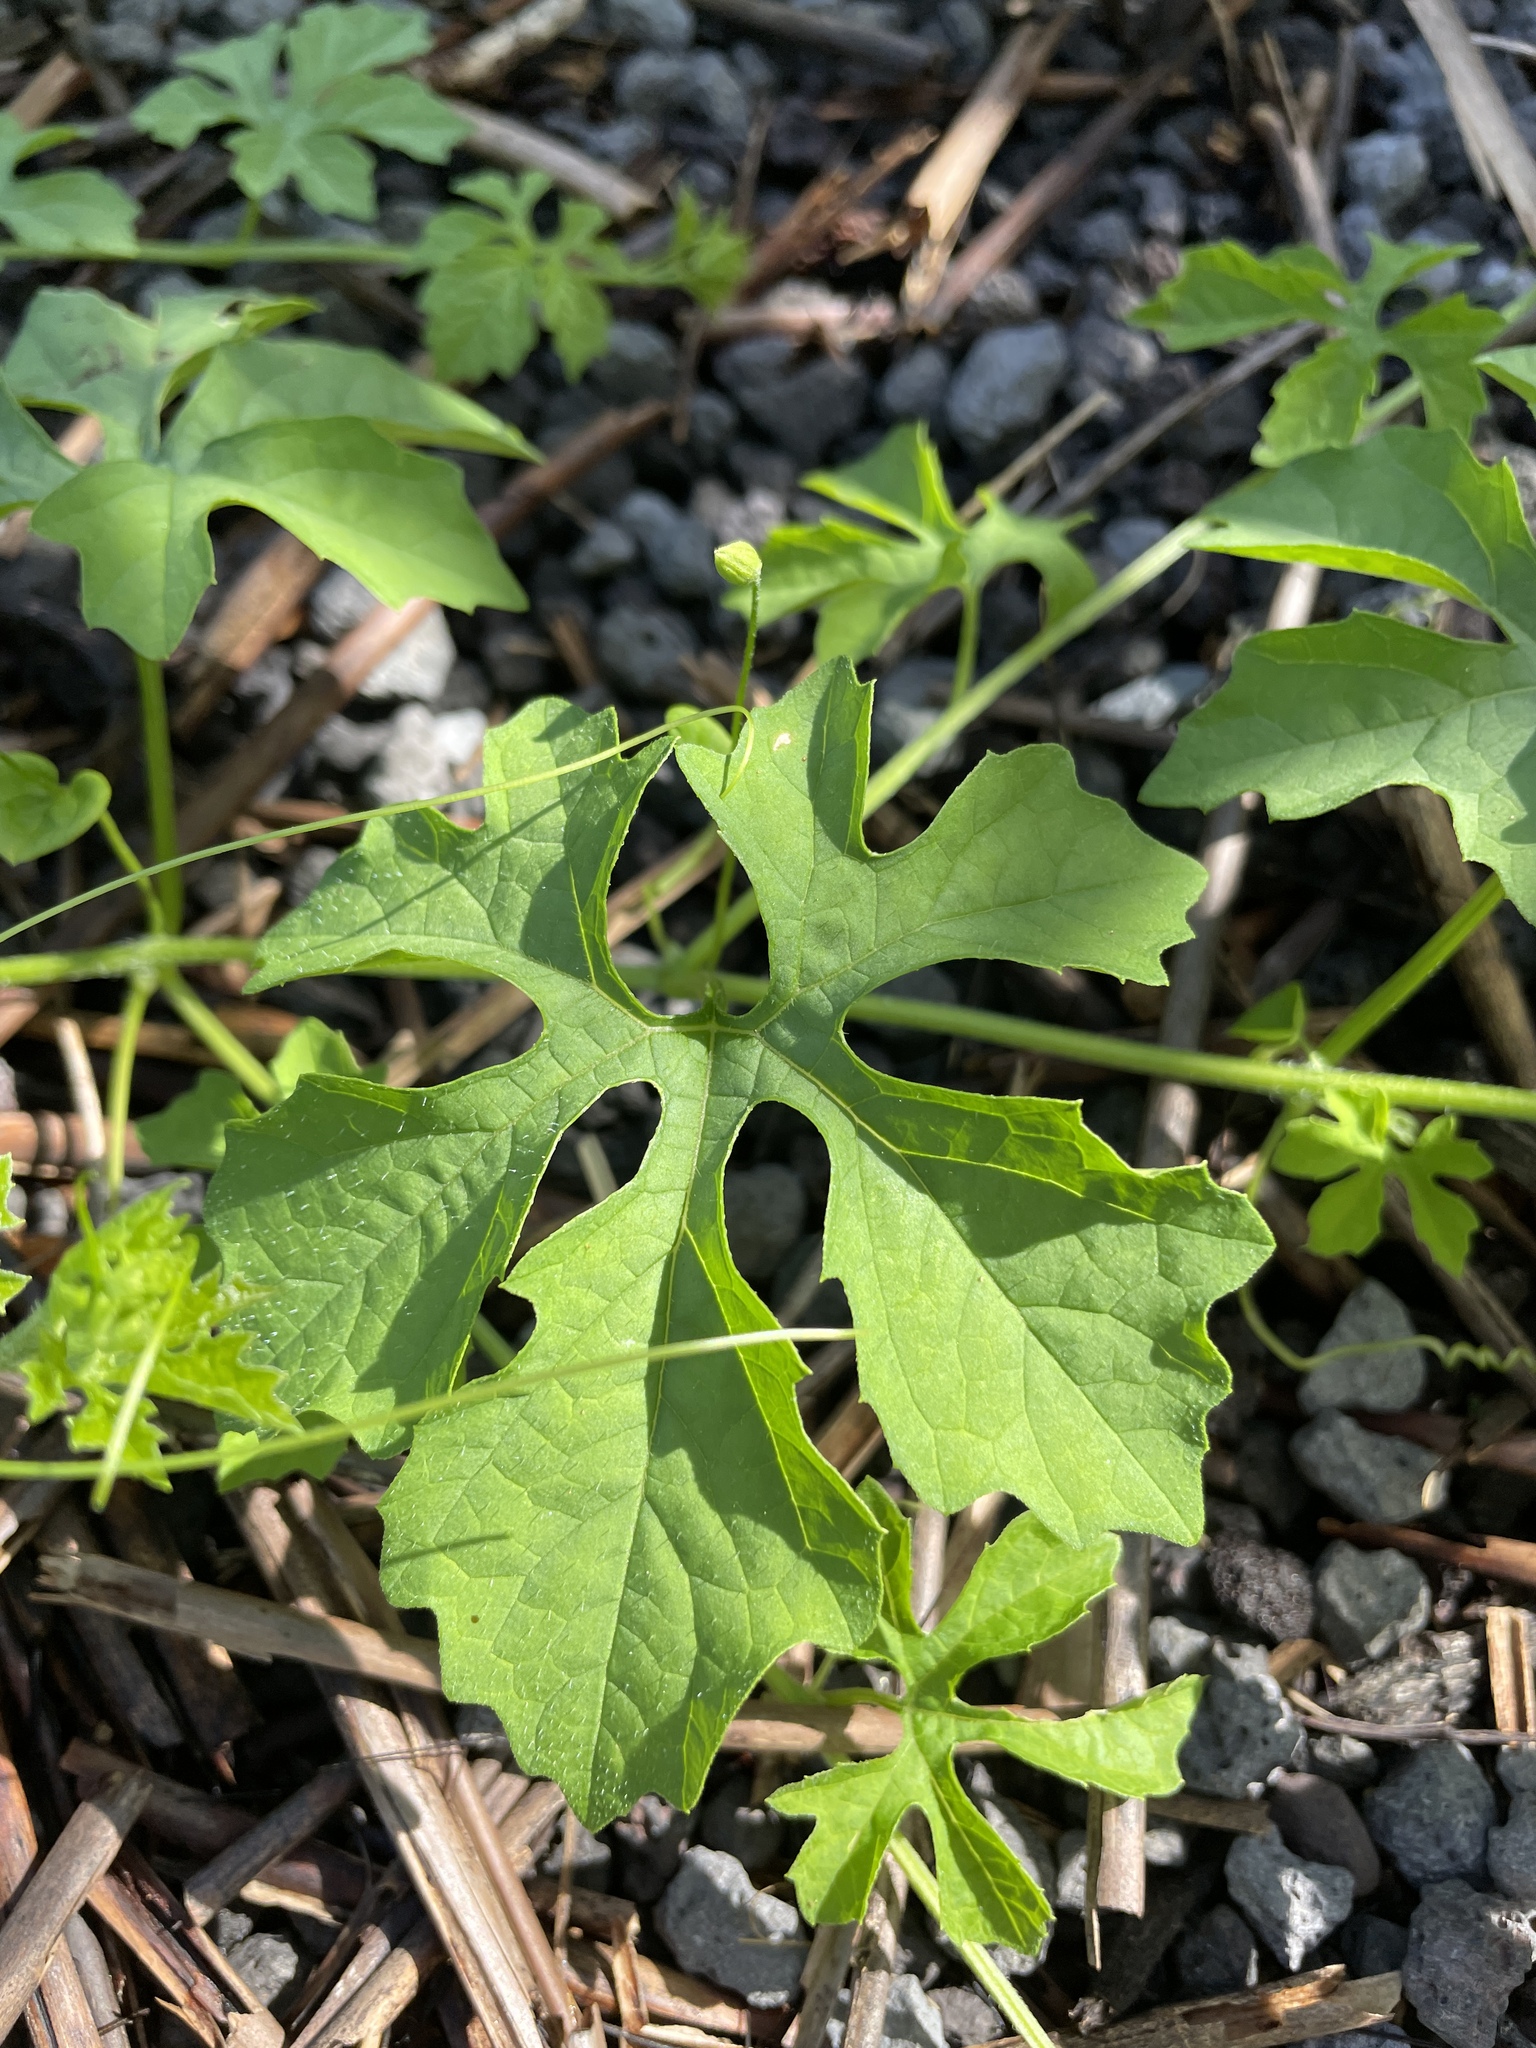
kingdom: Plantae
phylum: Tracheophyta
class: Magnoliopsida
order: Cucurbitales
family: Cucurbitaceae
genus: Momordica
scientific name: Momordica charantia
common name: Balsampear
